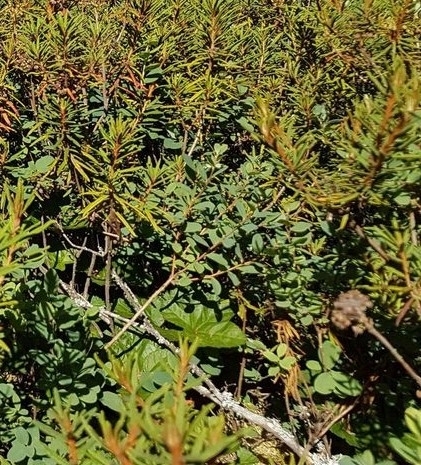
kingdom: Plantae
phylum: Tracheophyta
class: Magnoliopsida
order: Ericales
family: Ericaceae
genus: Vaccinium
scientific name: Vaccinium uliginosum
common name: Bog bilberry
